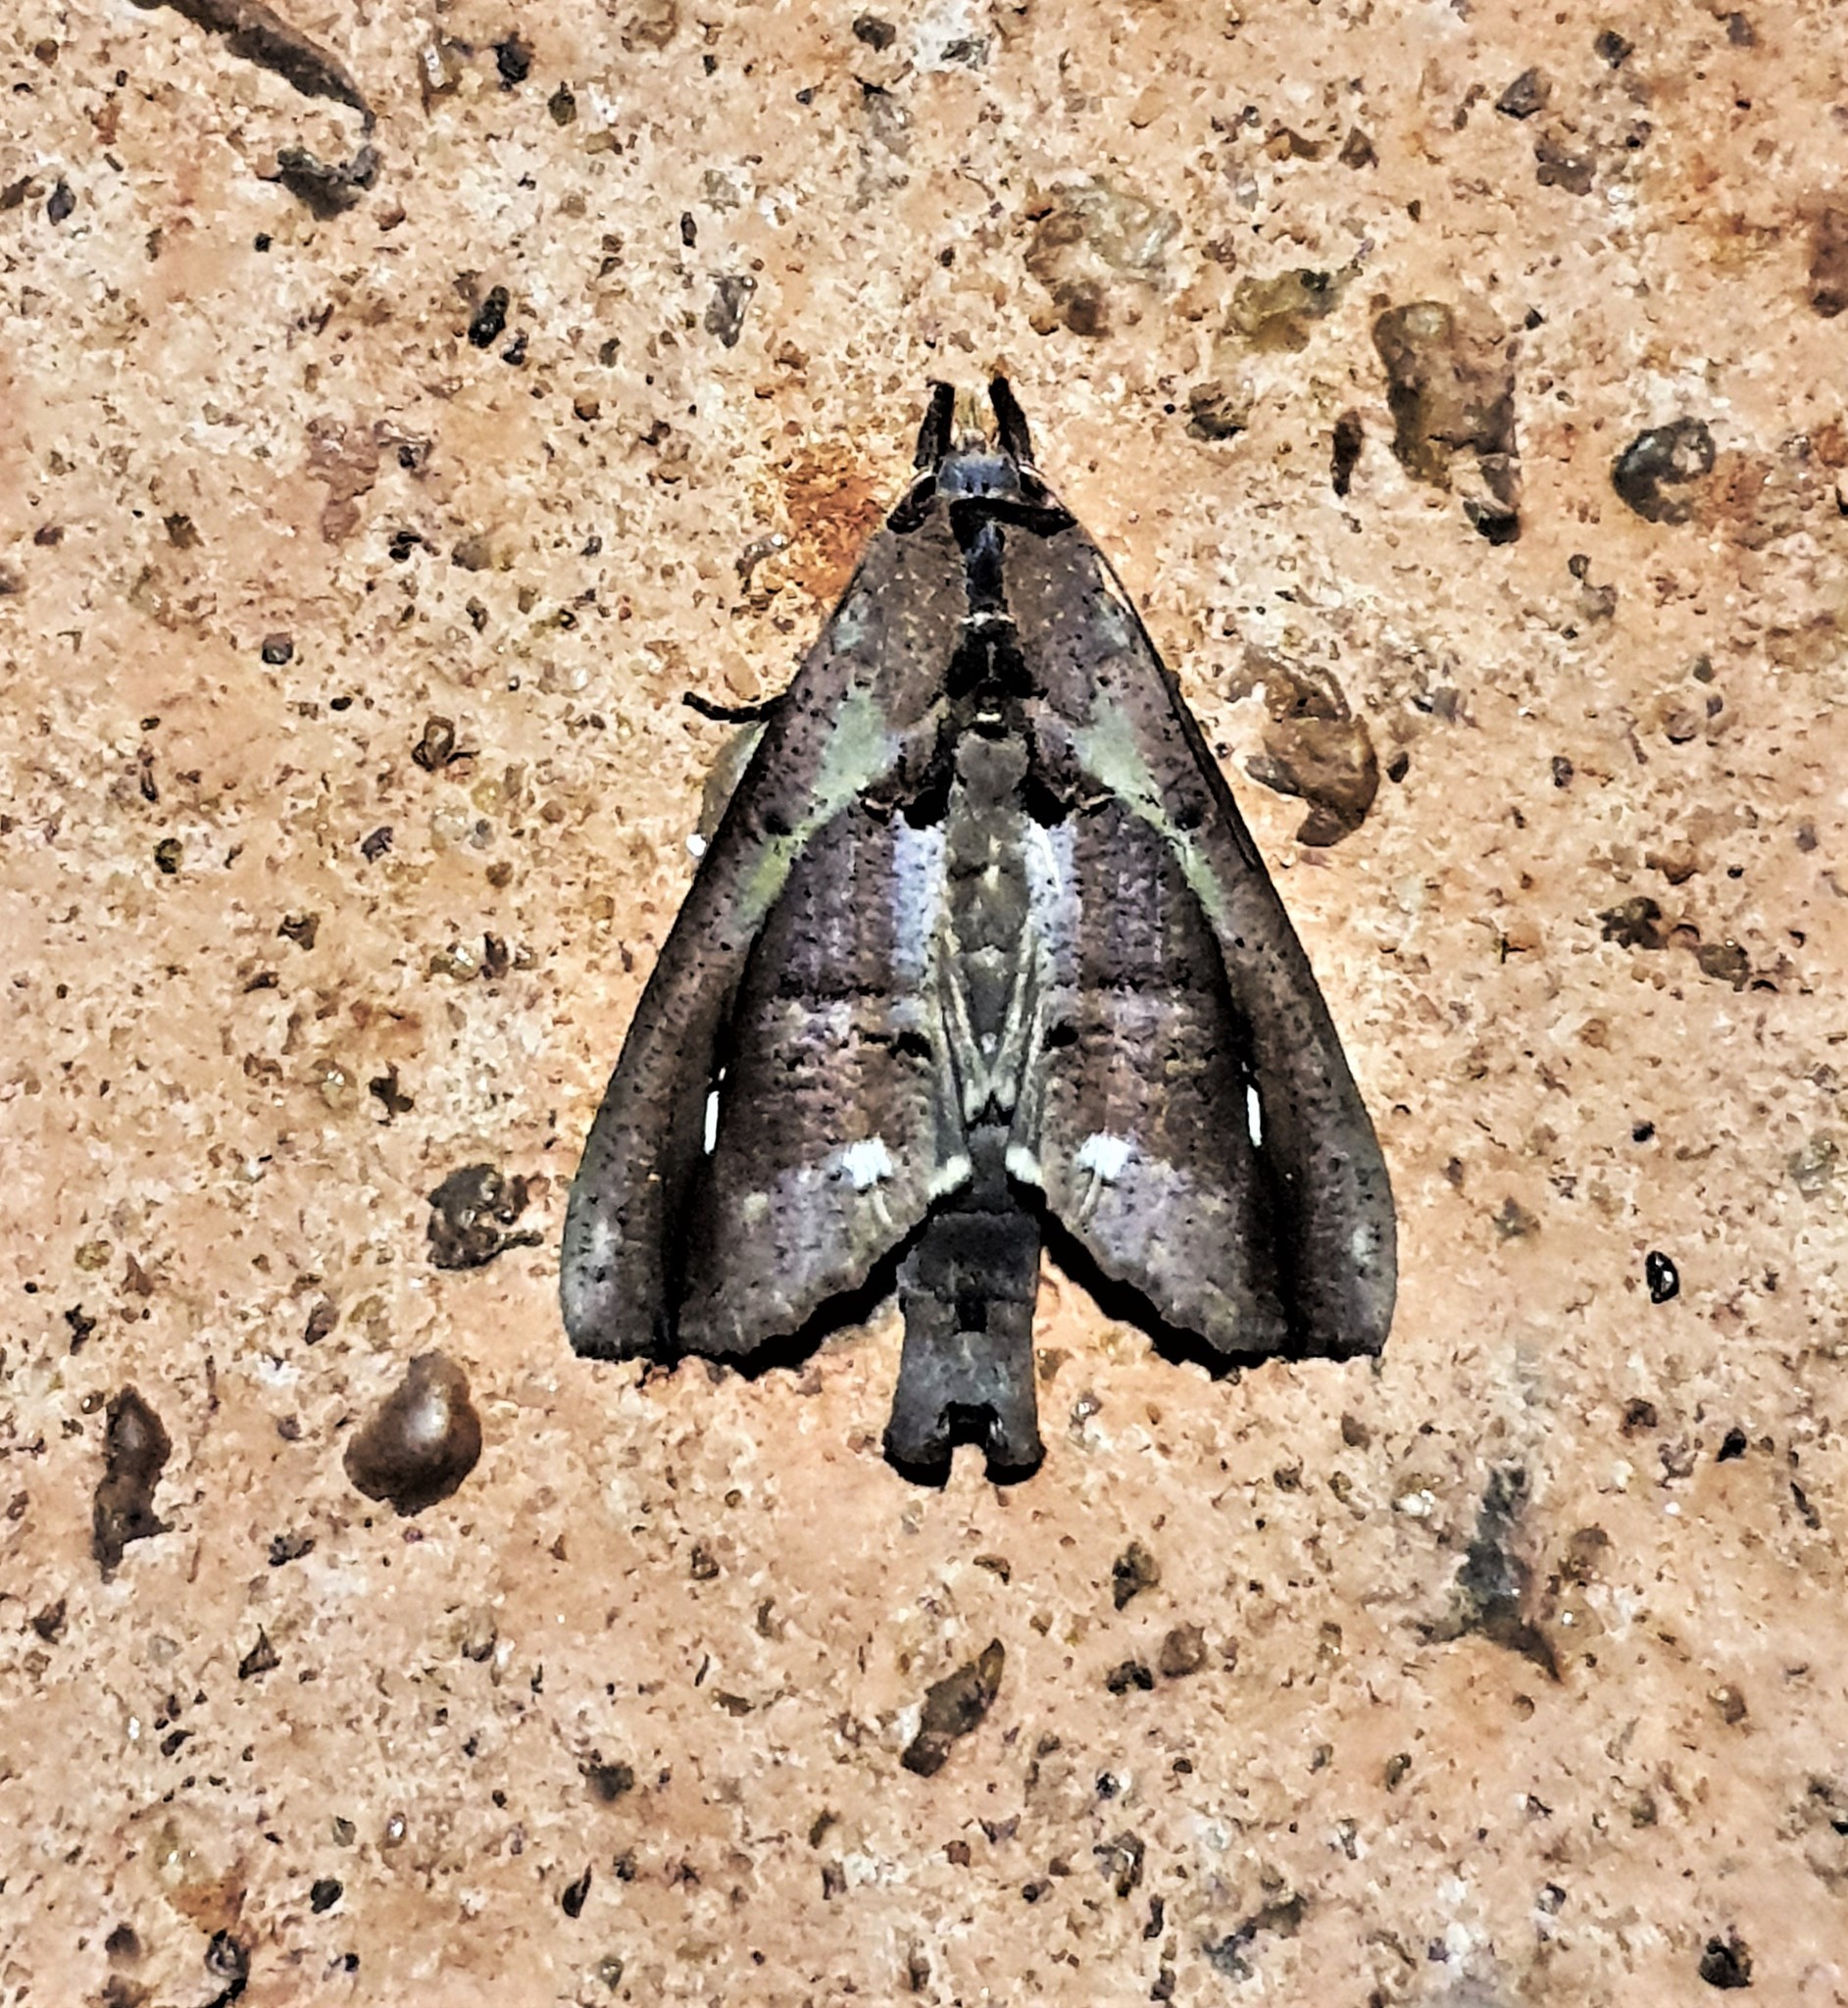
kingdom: Animalia
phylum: Arthropoda
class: Insecta
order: Lepidoptera
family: Notodontidae
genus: Bardaxima
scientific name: Bardaxima lucilinea
